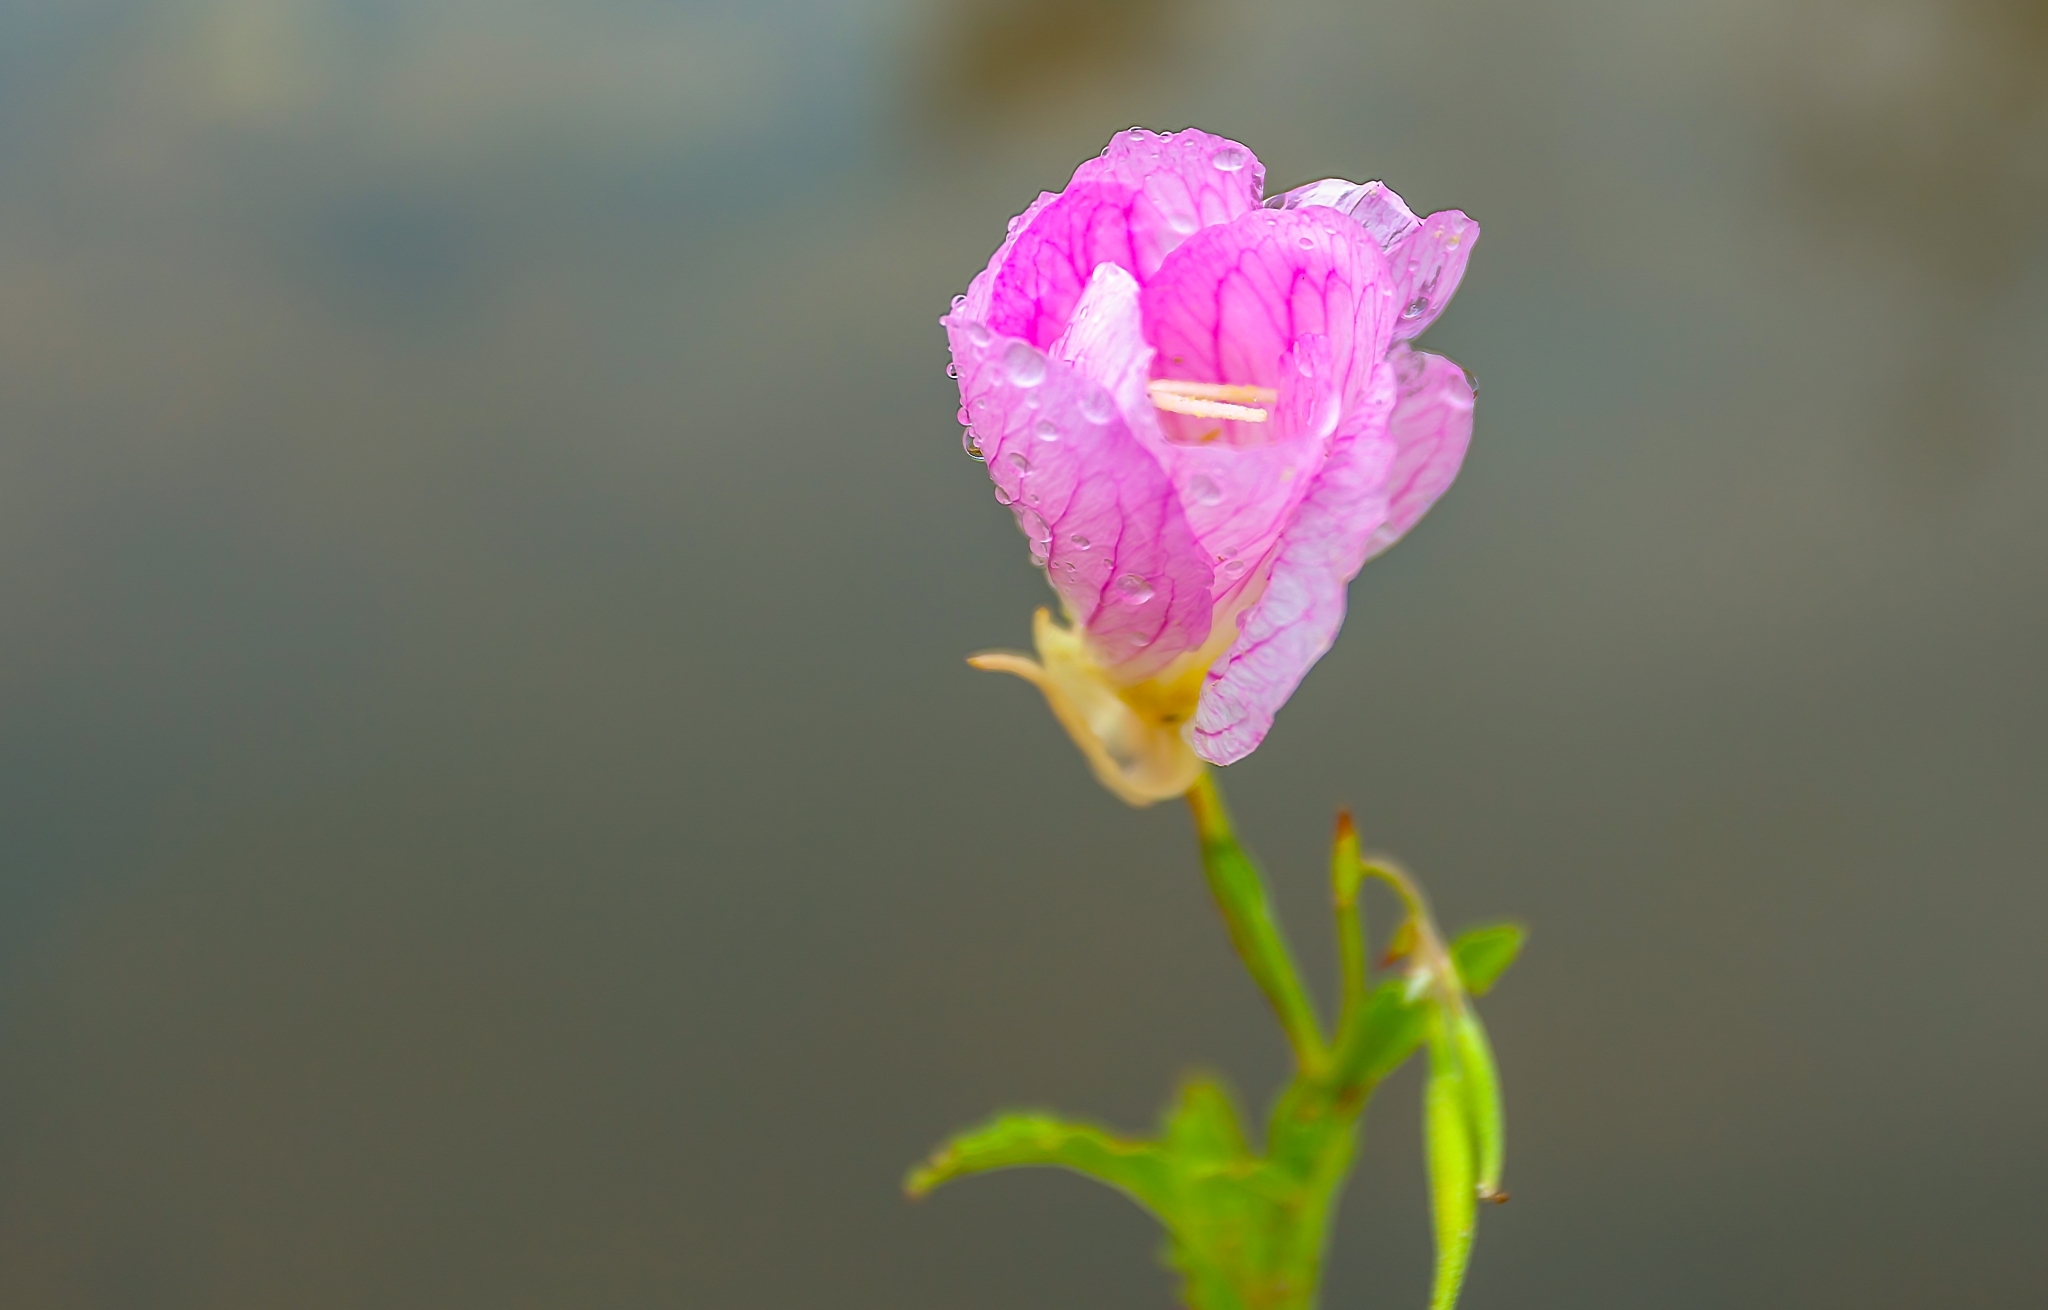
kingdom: Plantae
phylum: Tracheophyta
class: Magnoliopsida
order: Myrtales
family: Onagraceae
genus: Oenothera
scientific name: Oenothera speciosa
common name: White evening-primrose
